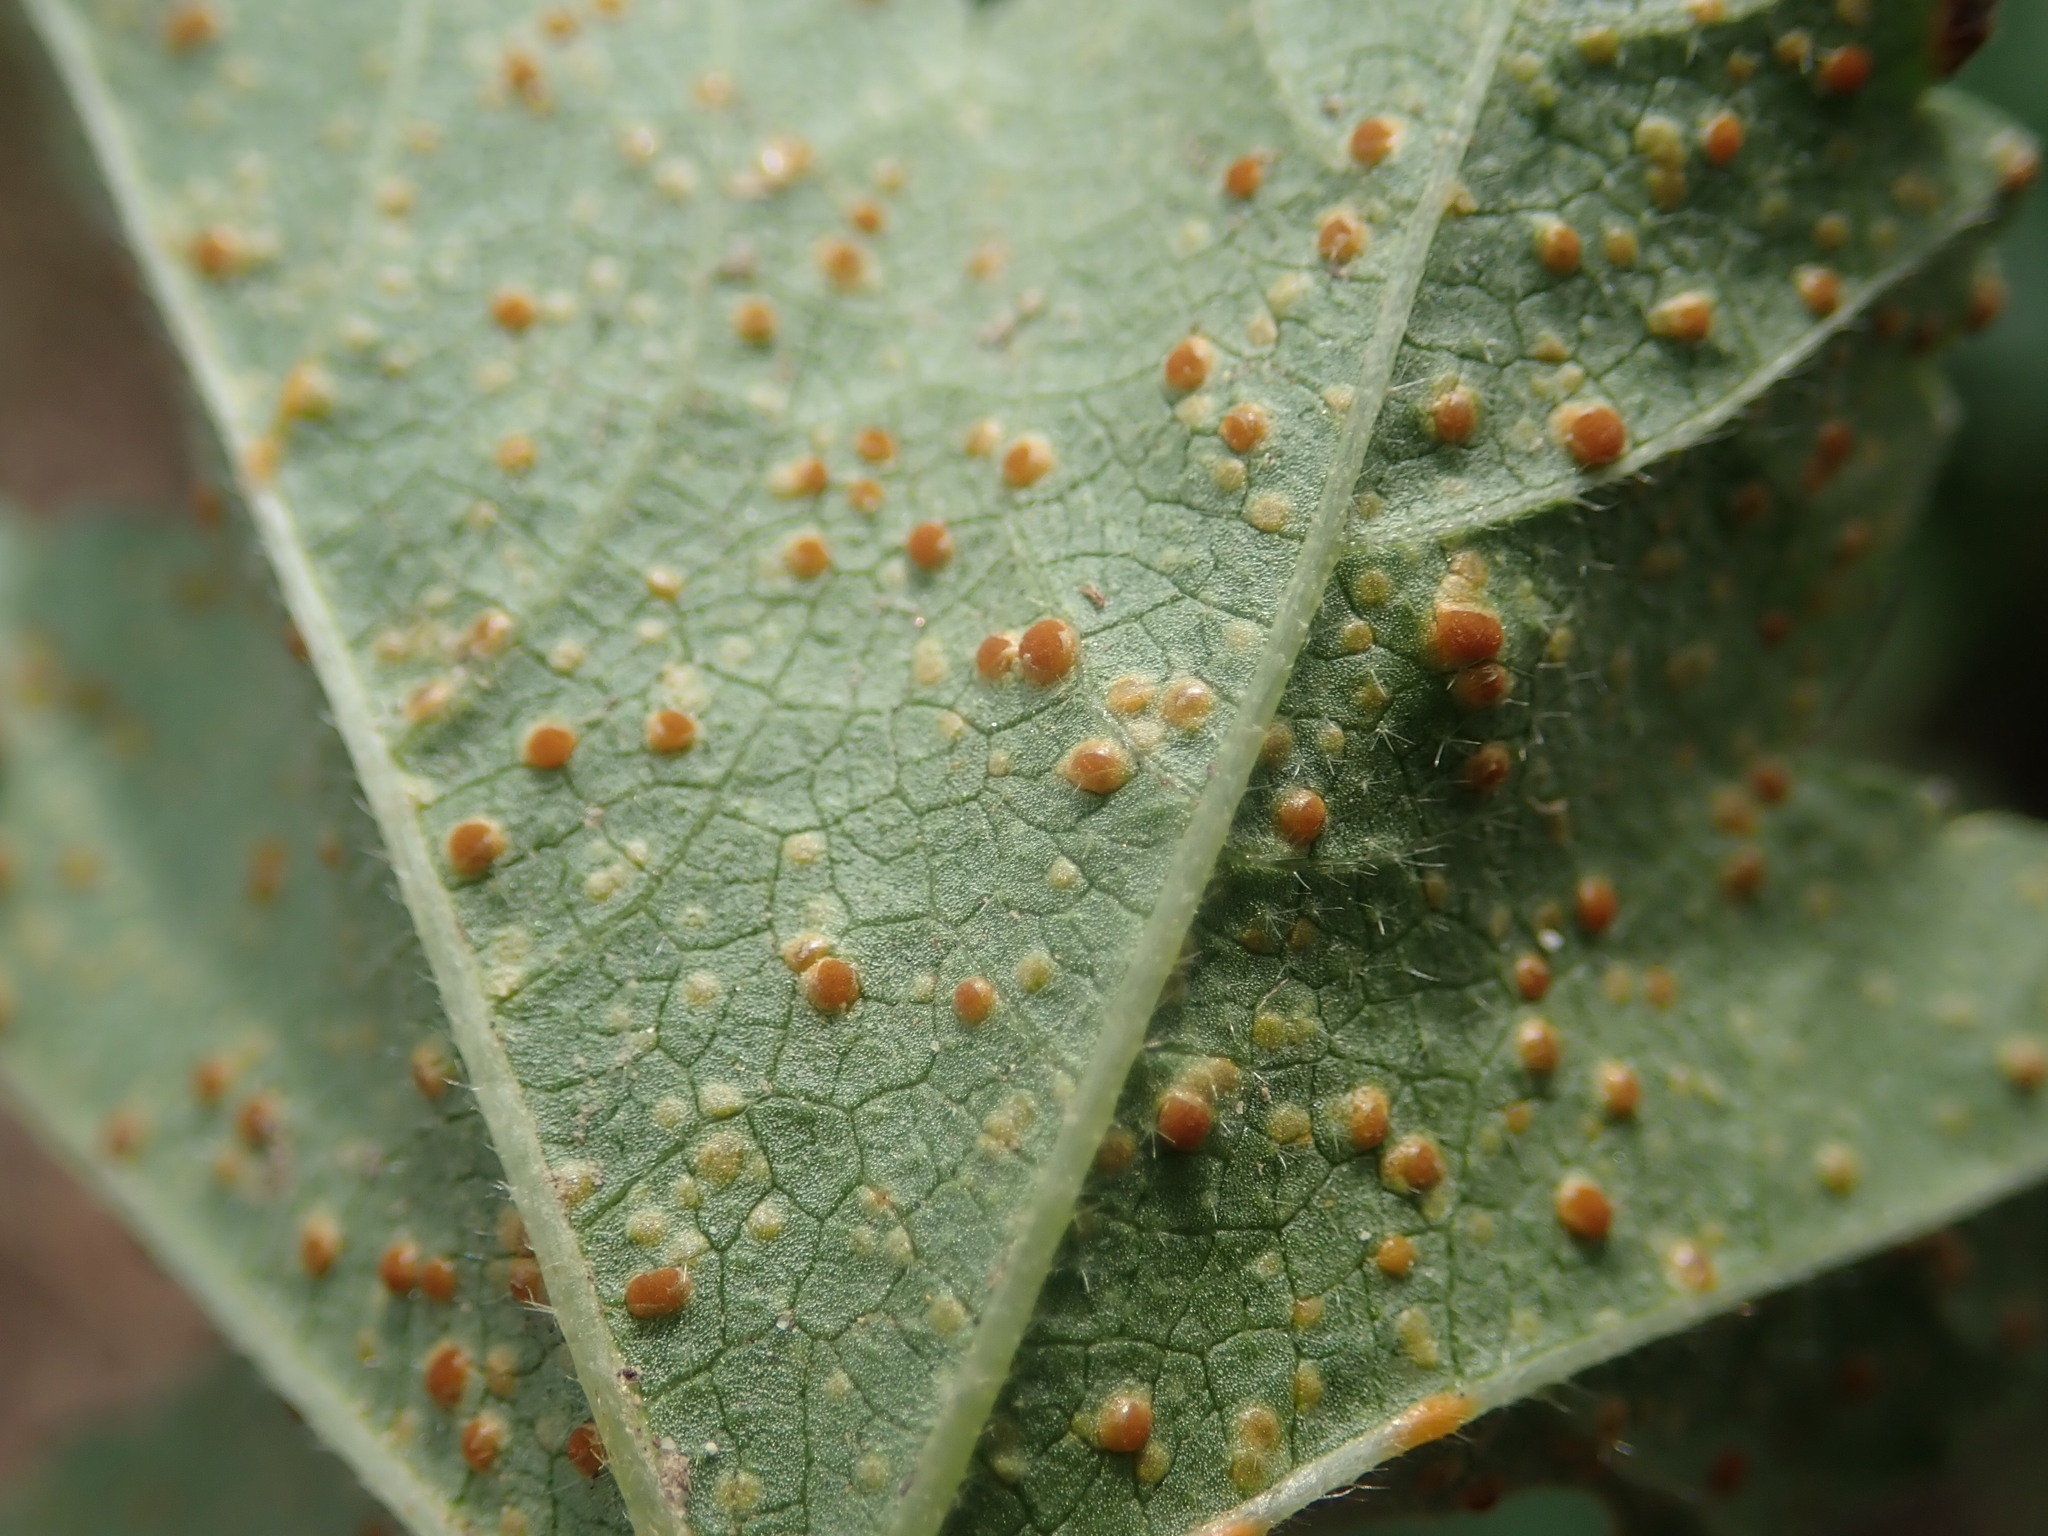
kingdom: Fungi
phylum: Basidiomycota
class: Pucciniomycetes
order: Pucciniales
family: Pucciniaceae
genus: Puccinia
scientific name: Puccinia malvacearum
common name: Hollyhock rust
